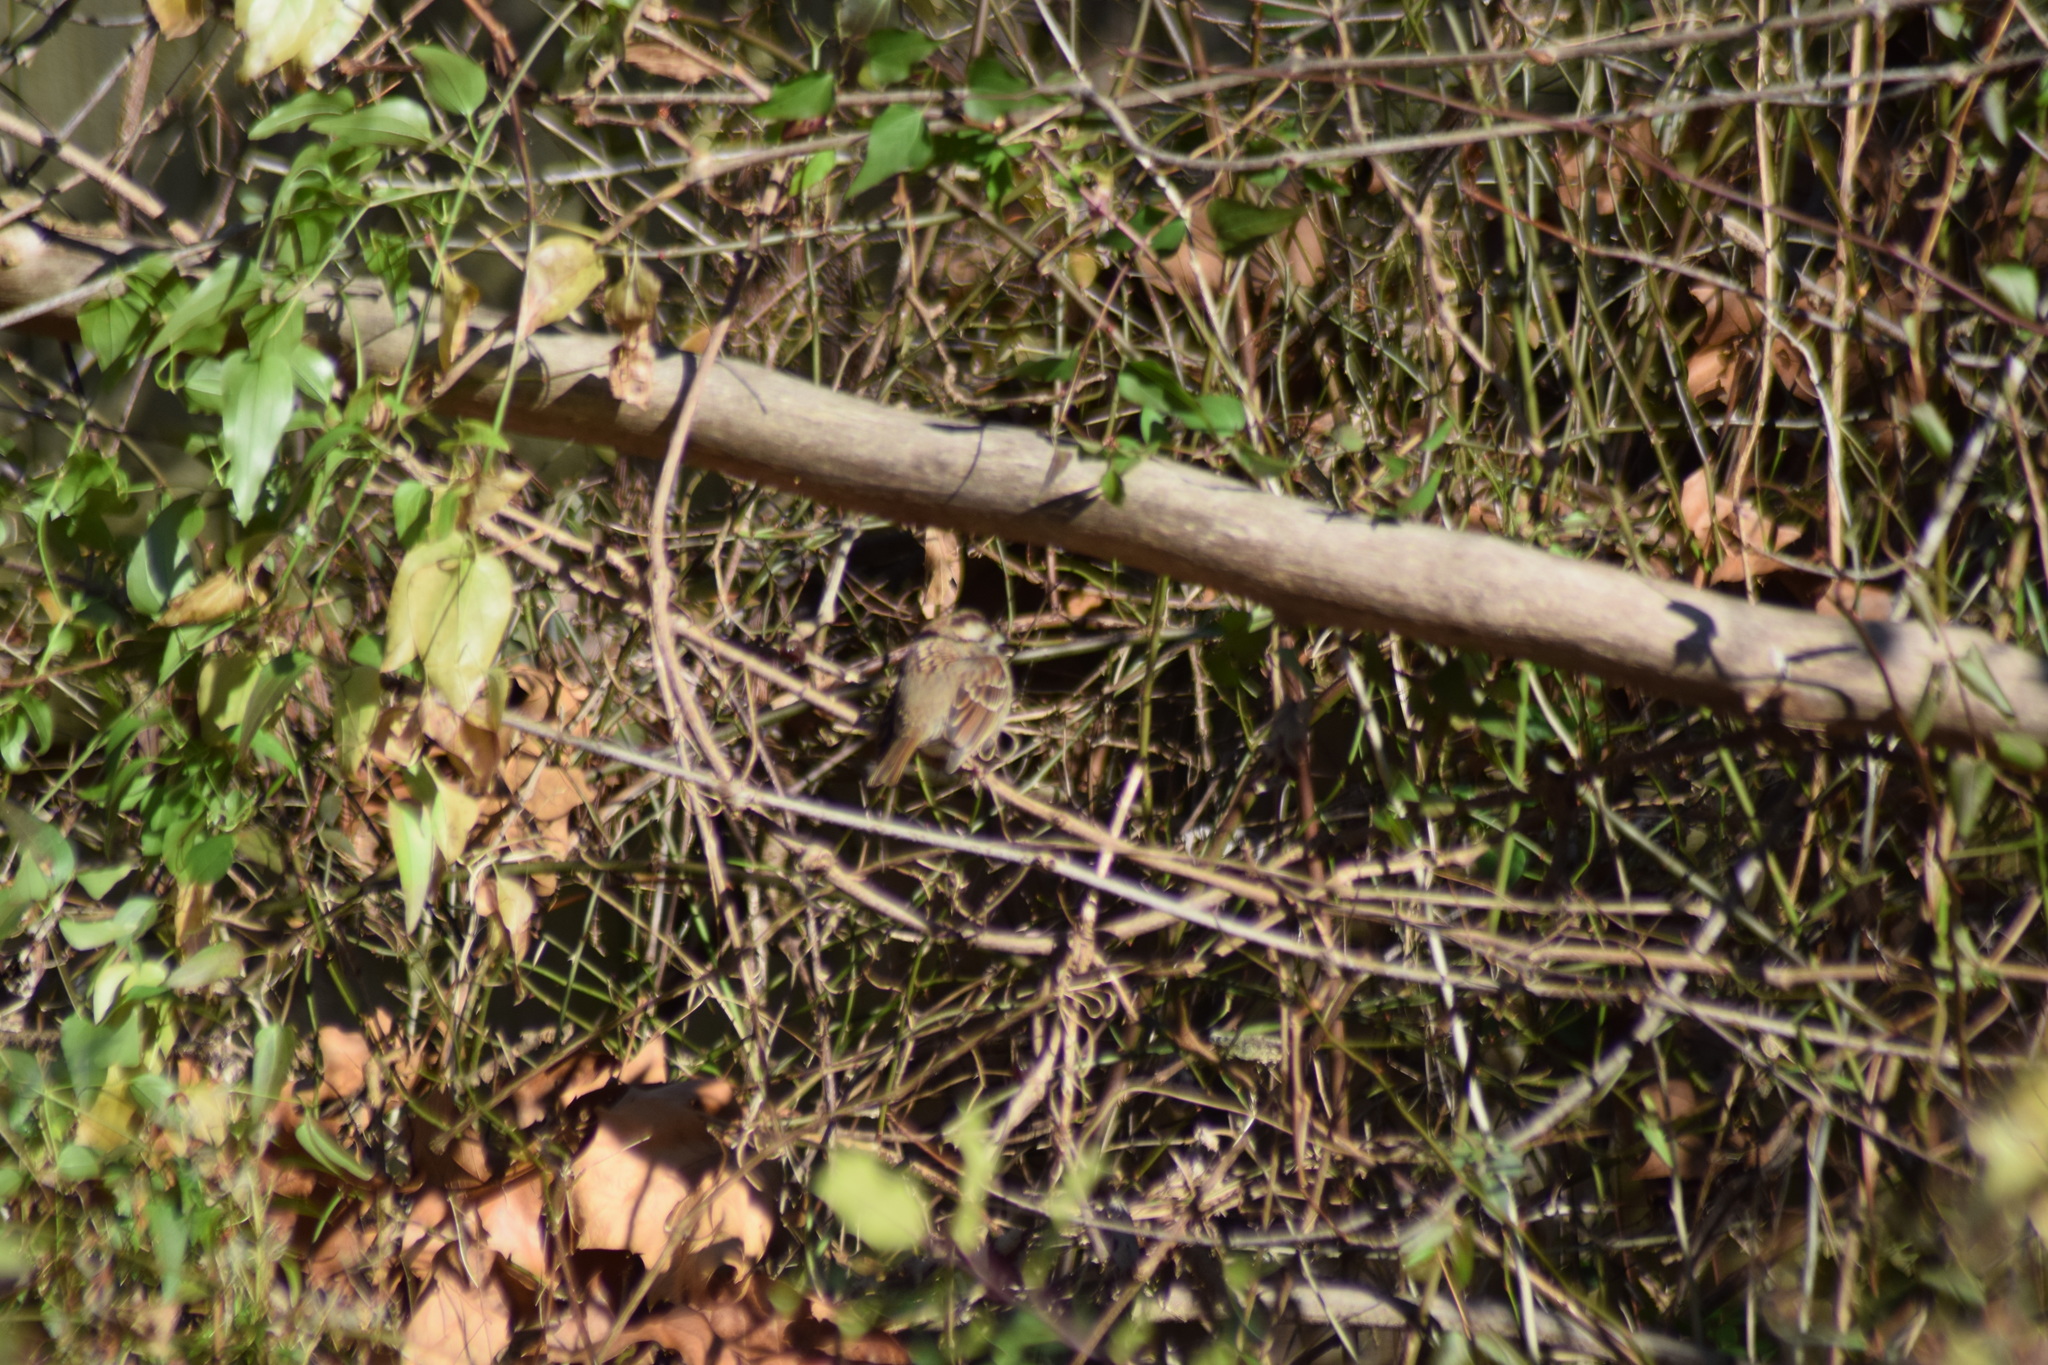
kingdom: Animalia
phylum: Chordata
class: Aves
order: Passeriformes
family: Passerellidae
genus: Zonotrichia
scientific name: Zonotrichia albicollis
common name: White-throated sparrow
